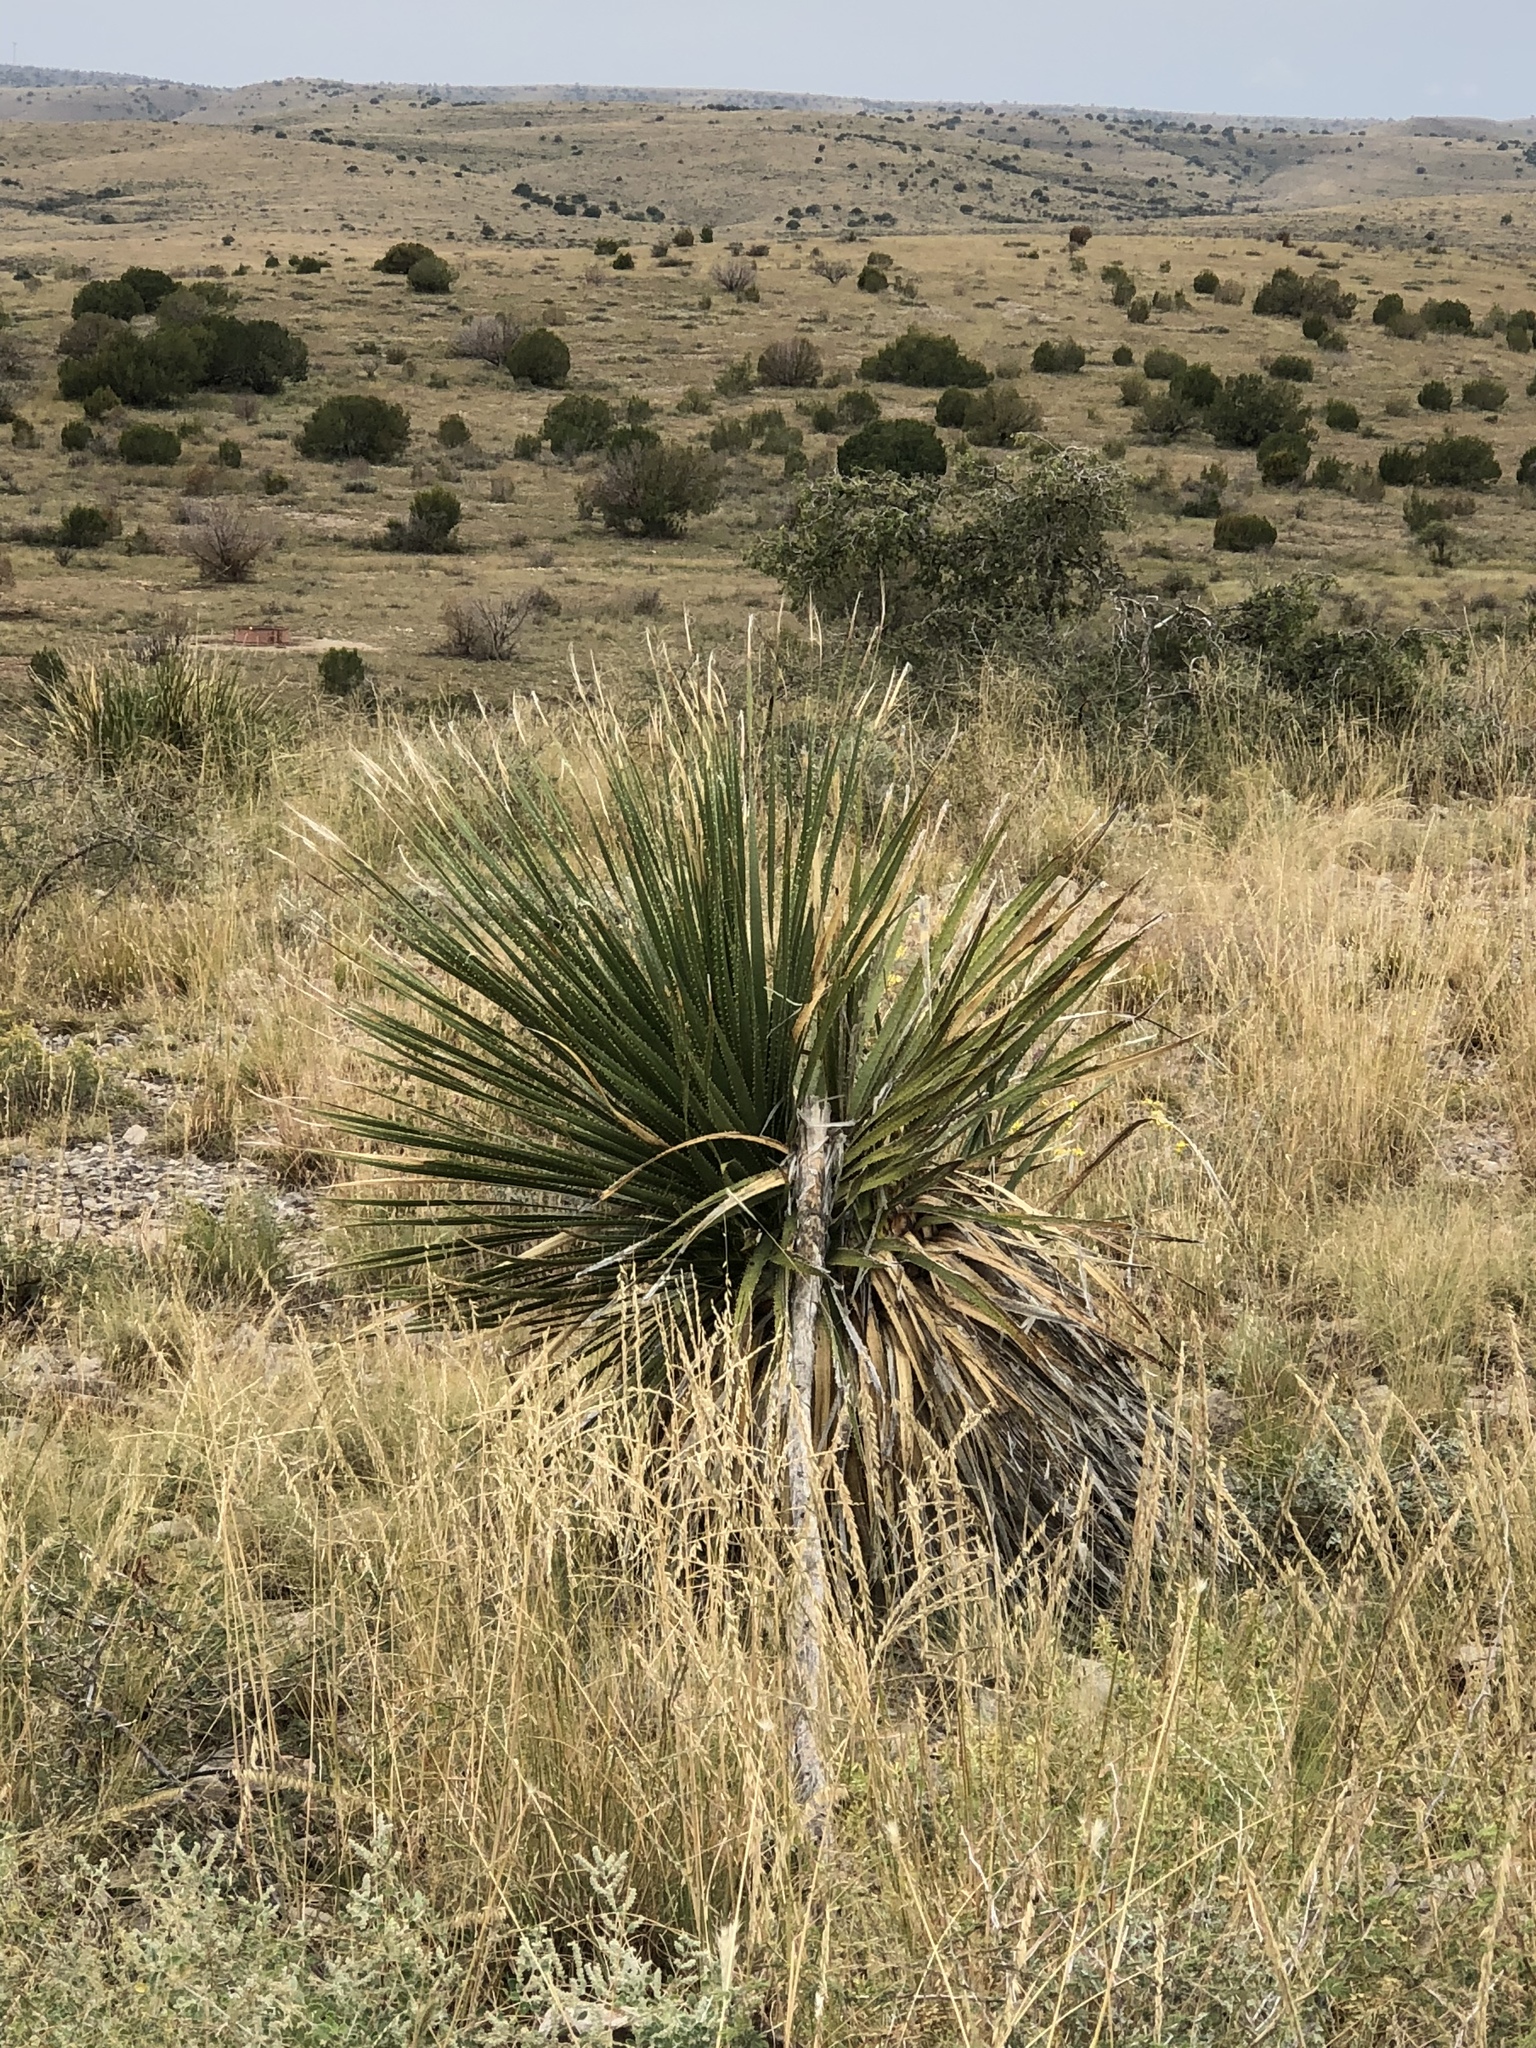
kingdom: Plantae
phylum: Tracheophyta
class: Liliopsida
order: Asparagales
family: Asparagaceae
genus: Dasylirion
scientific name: Dasylirion wheeleri
